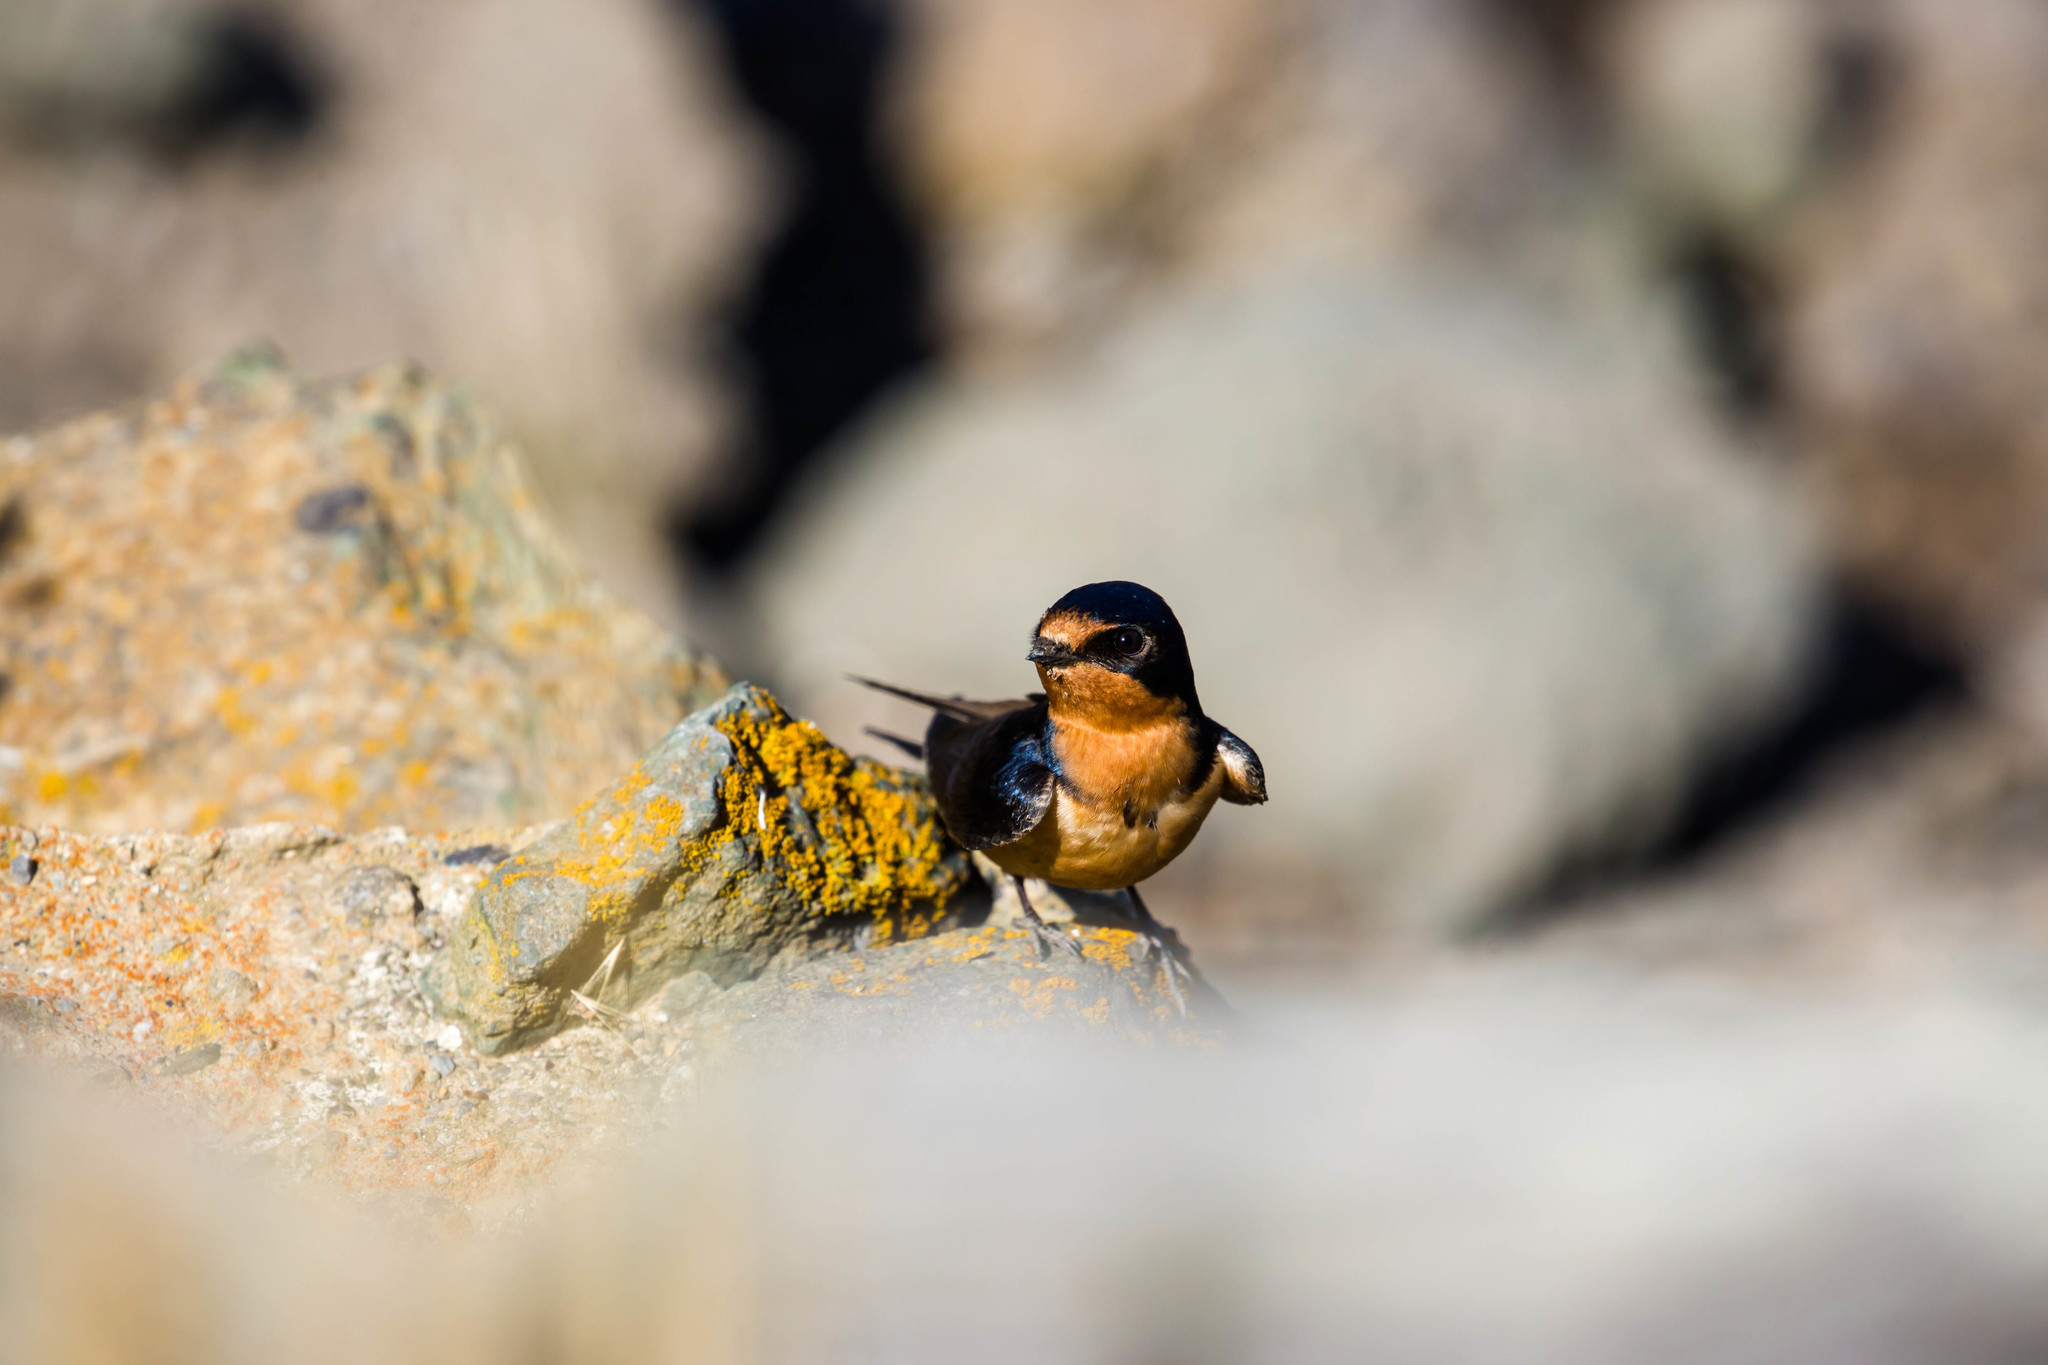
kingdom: Animalia
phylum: Chordata
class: Aves
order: Passeriformes
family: Hirundinidae
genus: Hirundo
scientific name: Hirundo rustica
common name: Barn swallow
